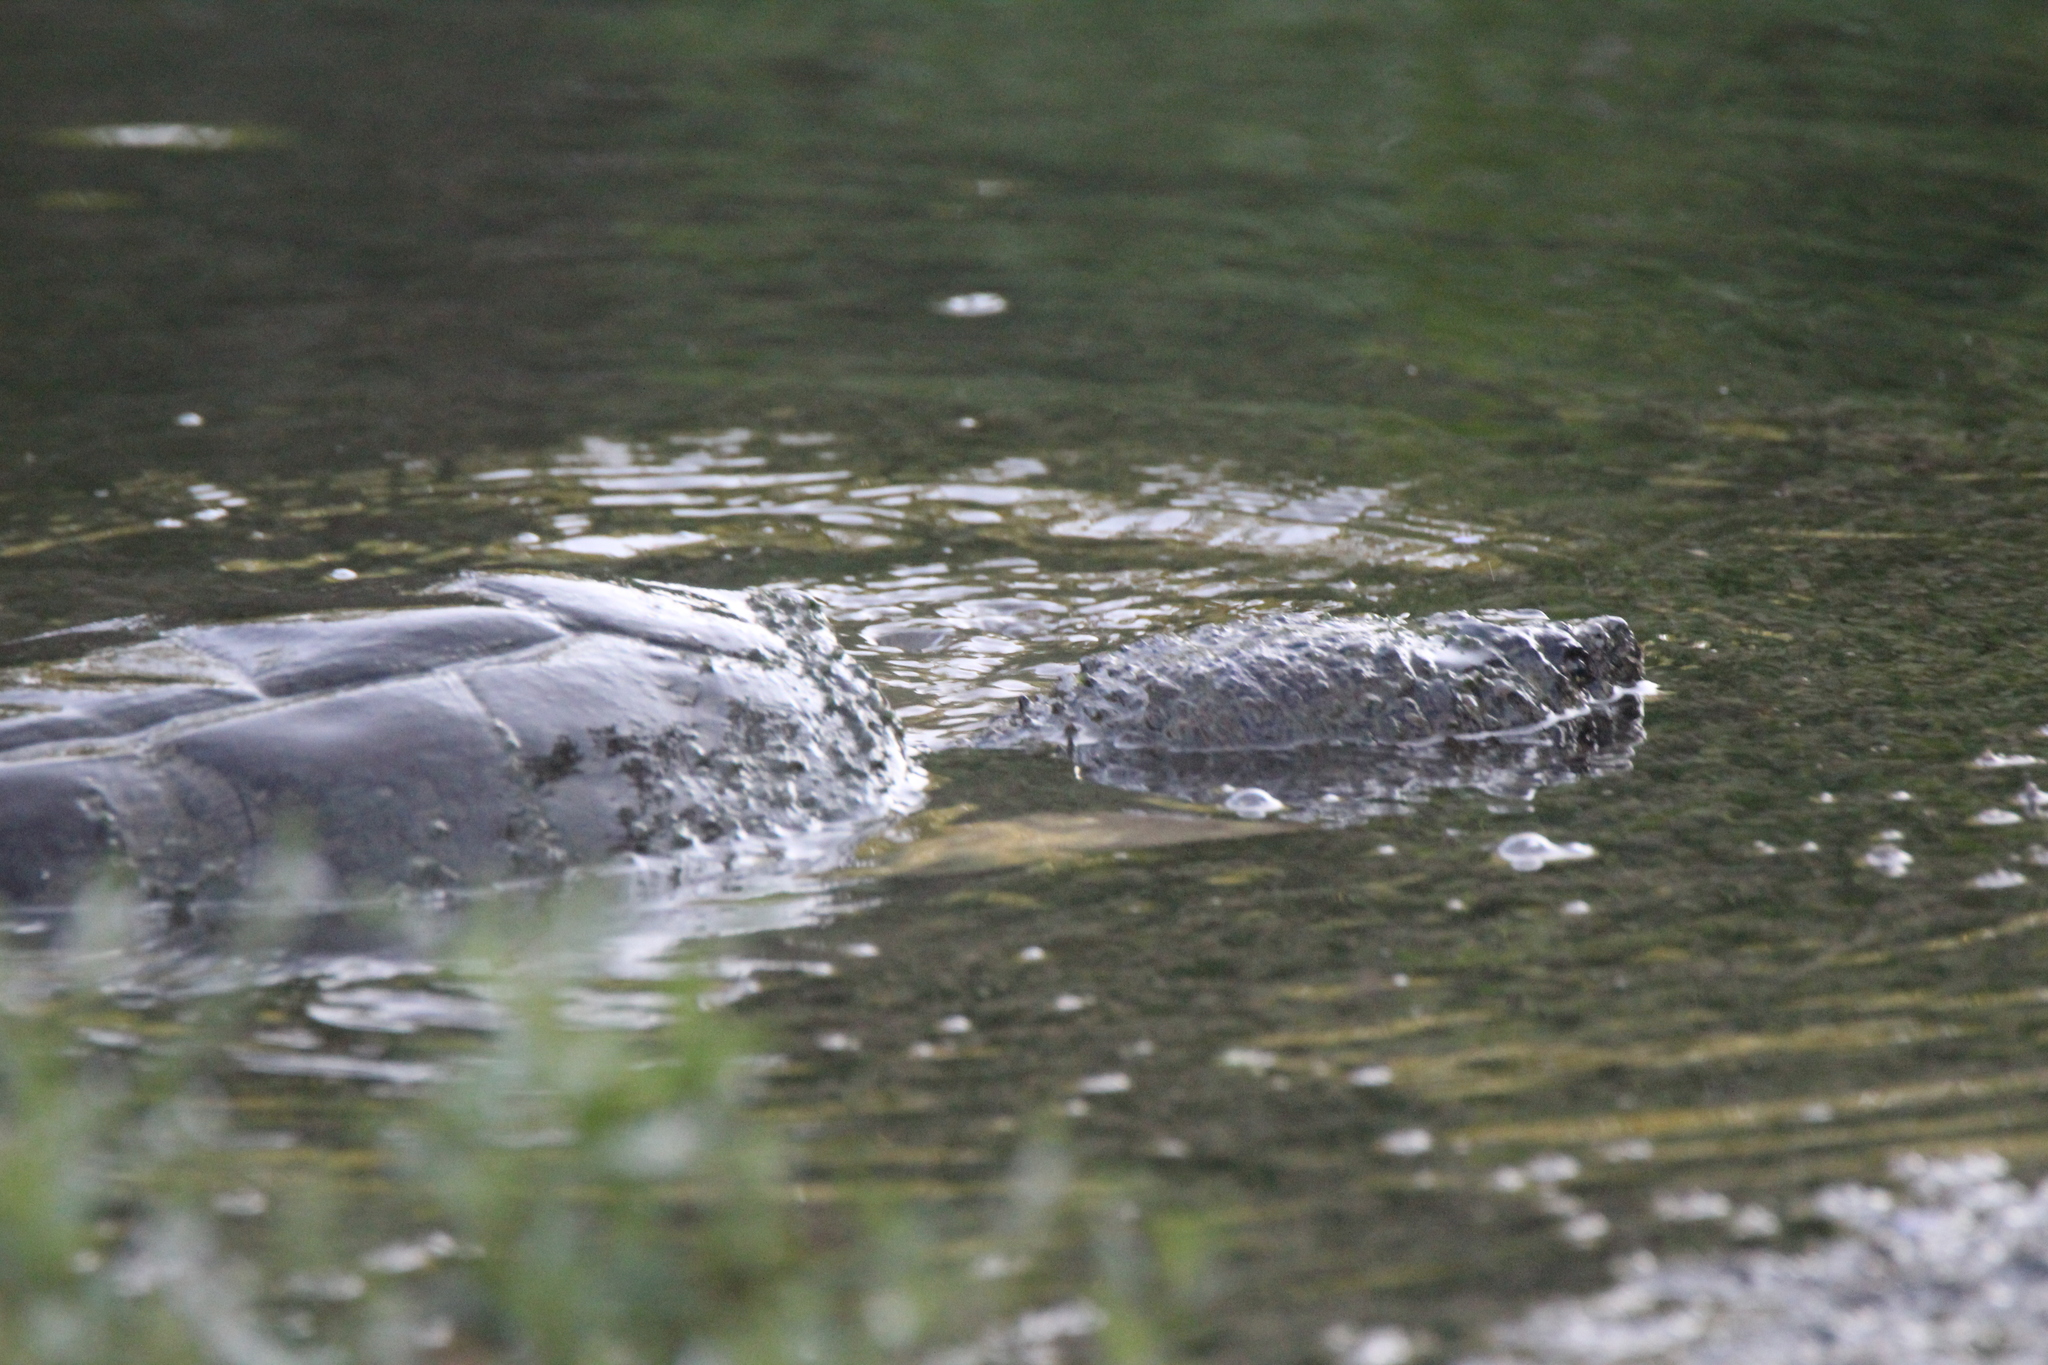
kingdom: Animalia
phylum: Chordata
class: Testudines
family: Chelydridae
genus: Chelydra
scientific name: Chelydra serpentina
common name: Common snapping turtle
